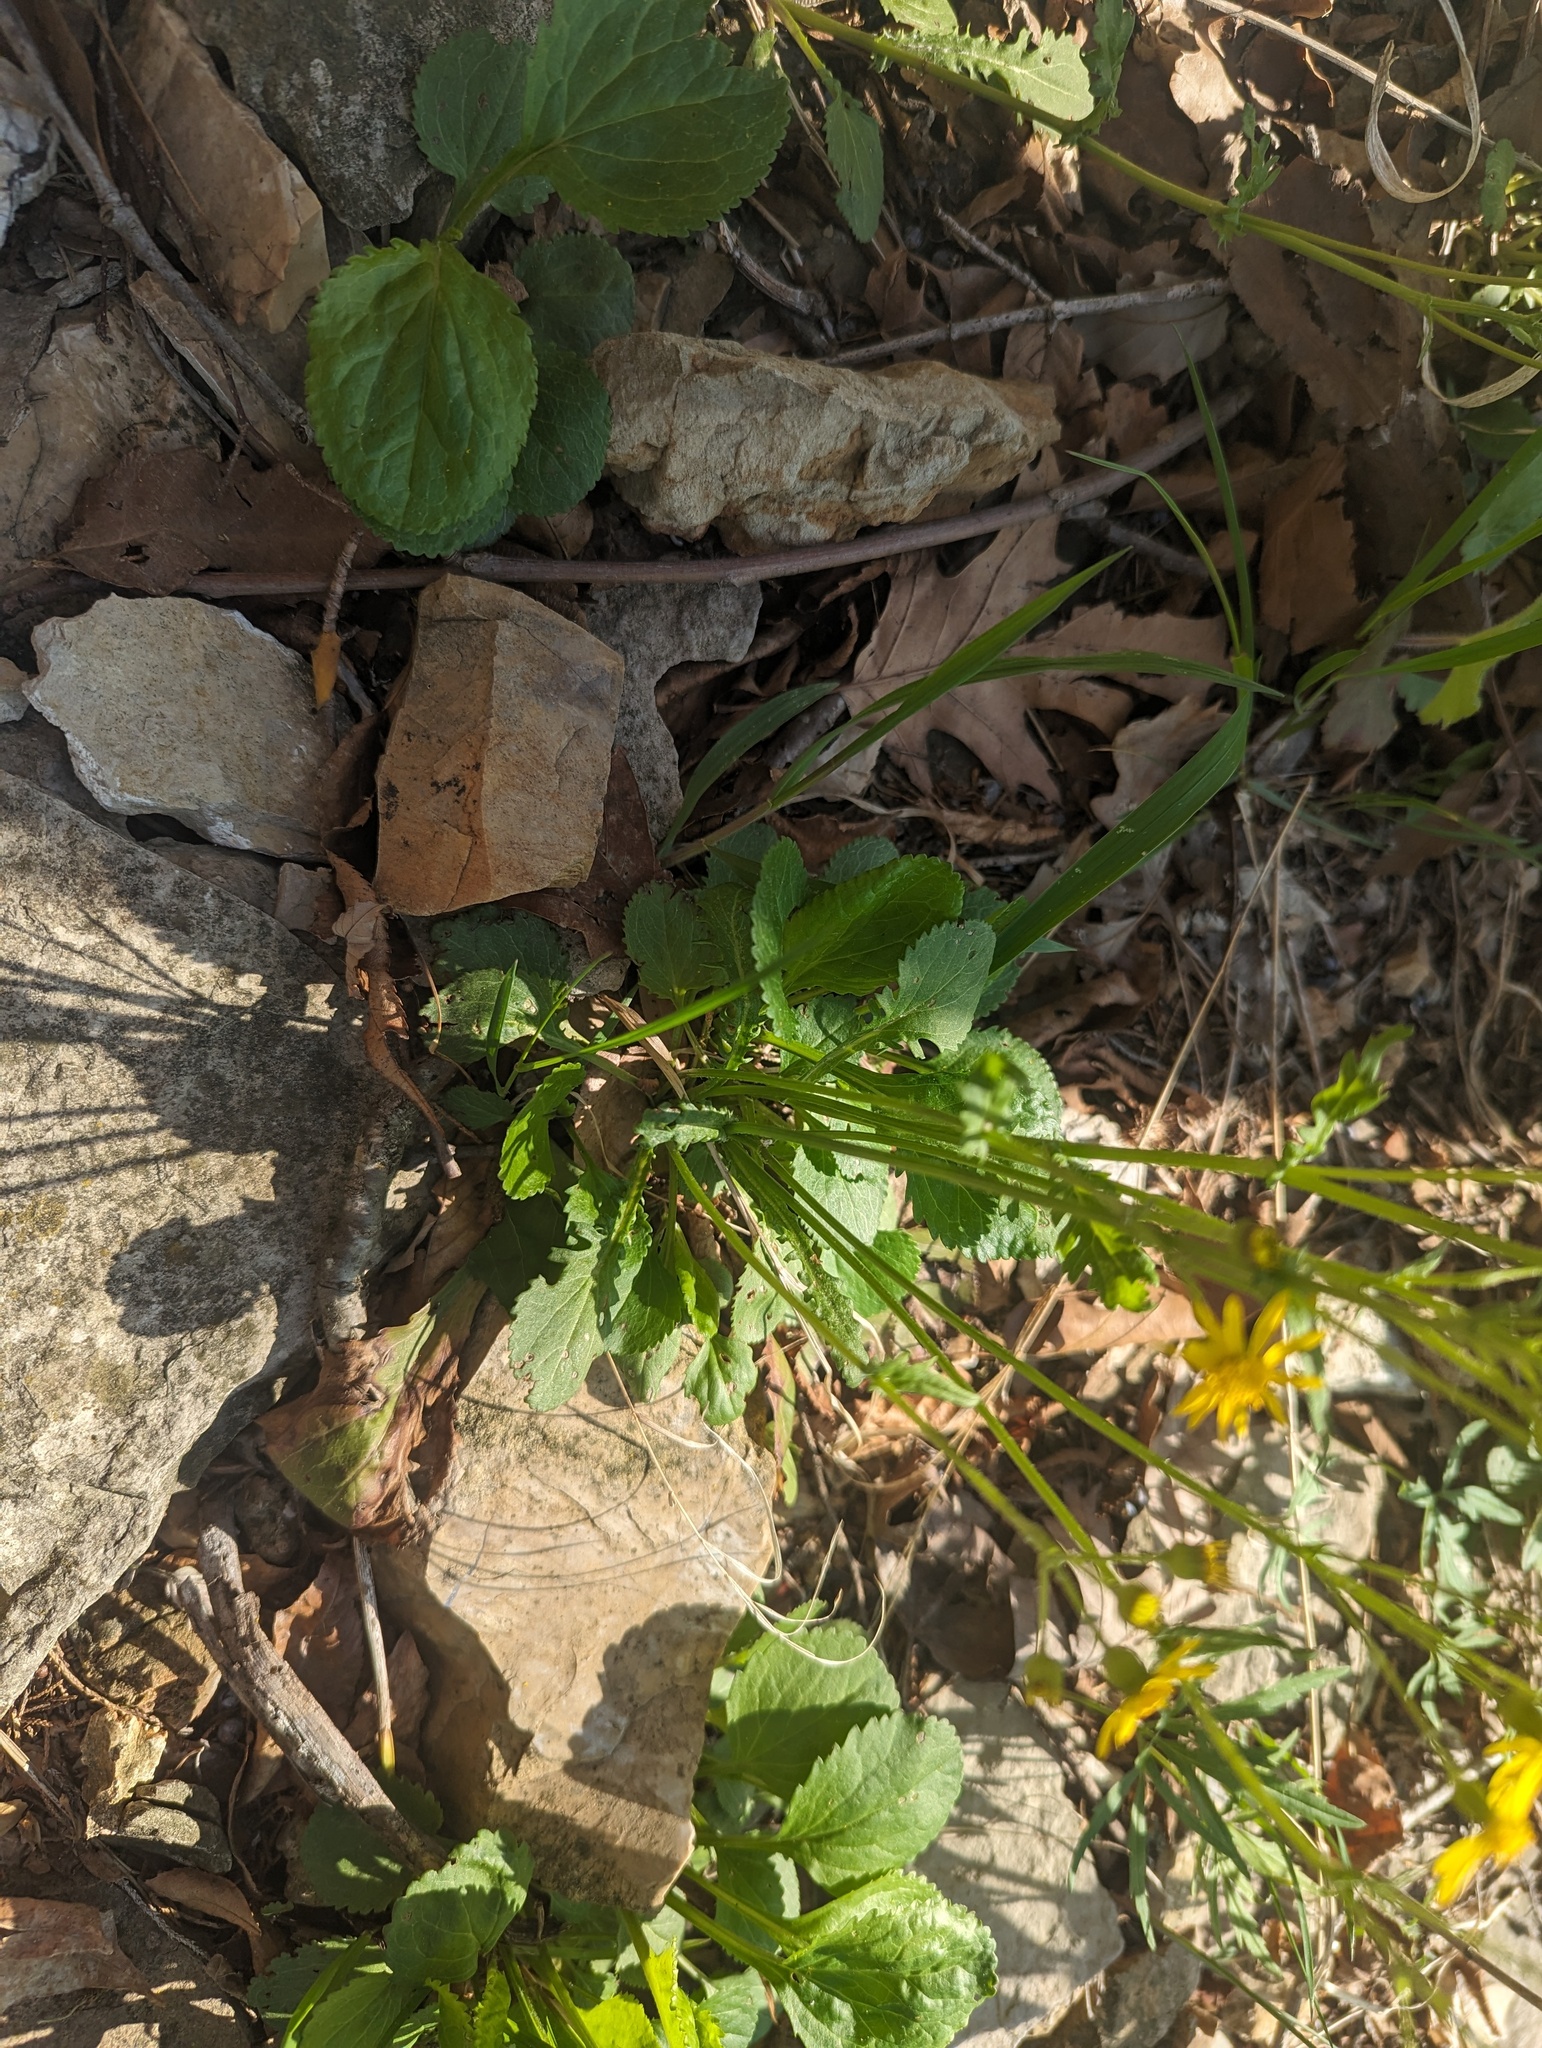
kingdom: Plantae
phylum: Tracheophyta
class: Magnoliopsida
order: Asterales
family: Asteraceae
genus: Packera
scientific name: Packera obovata
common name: Round-leaf ragwort
